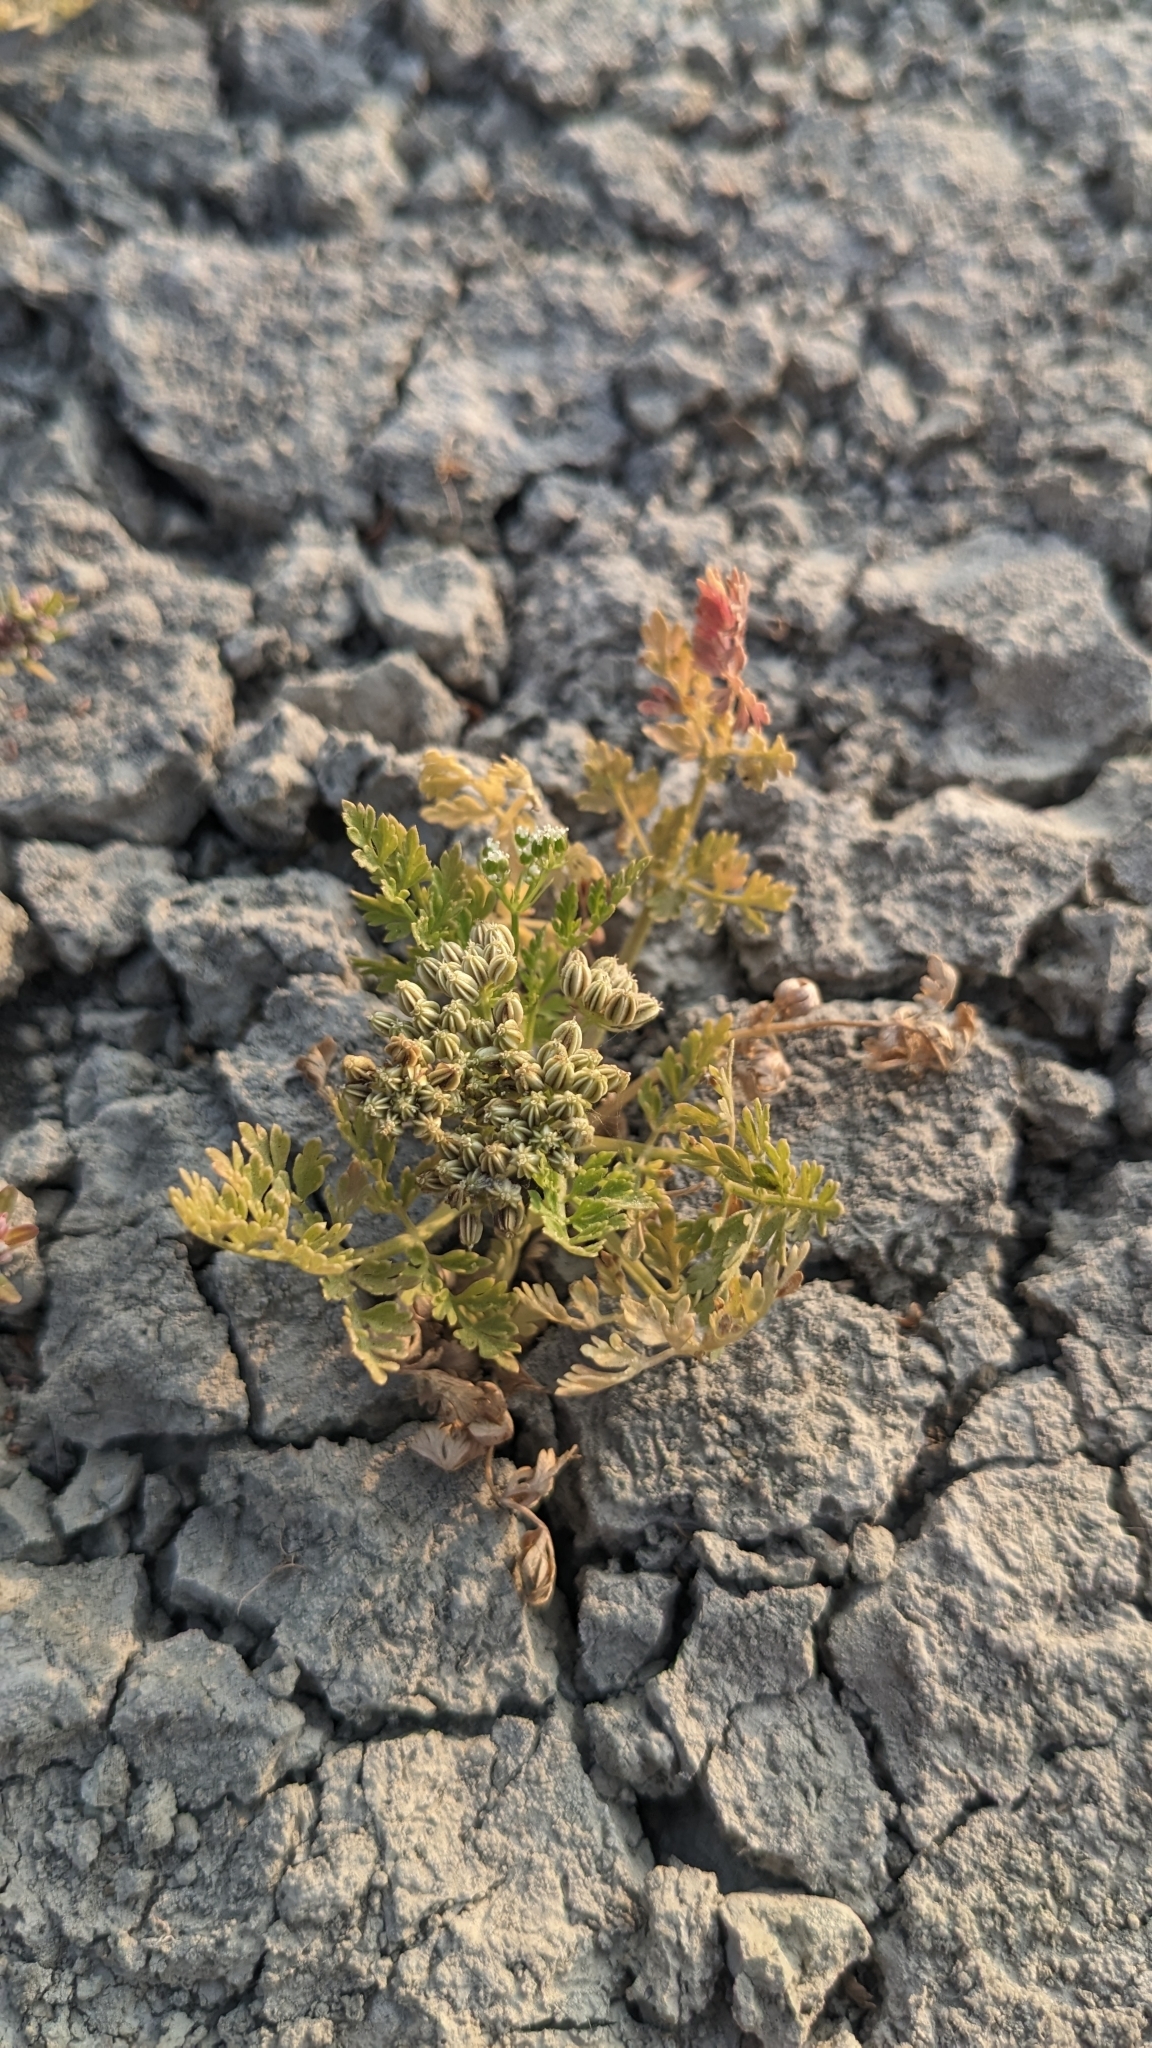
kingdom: Plantae
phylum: Tracheophyta
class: Magnoliopsida
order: Apiales
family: Apiaceae
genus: Cnidium
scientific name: Cnidium monnieri
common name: Monnier's snowparsley
